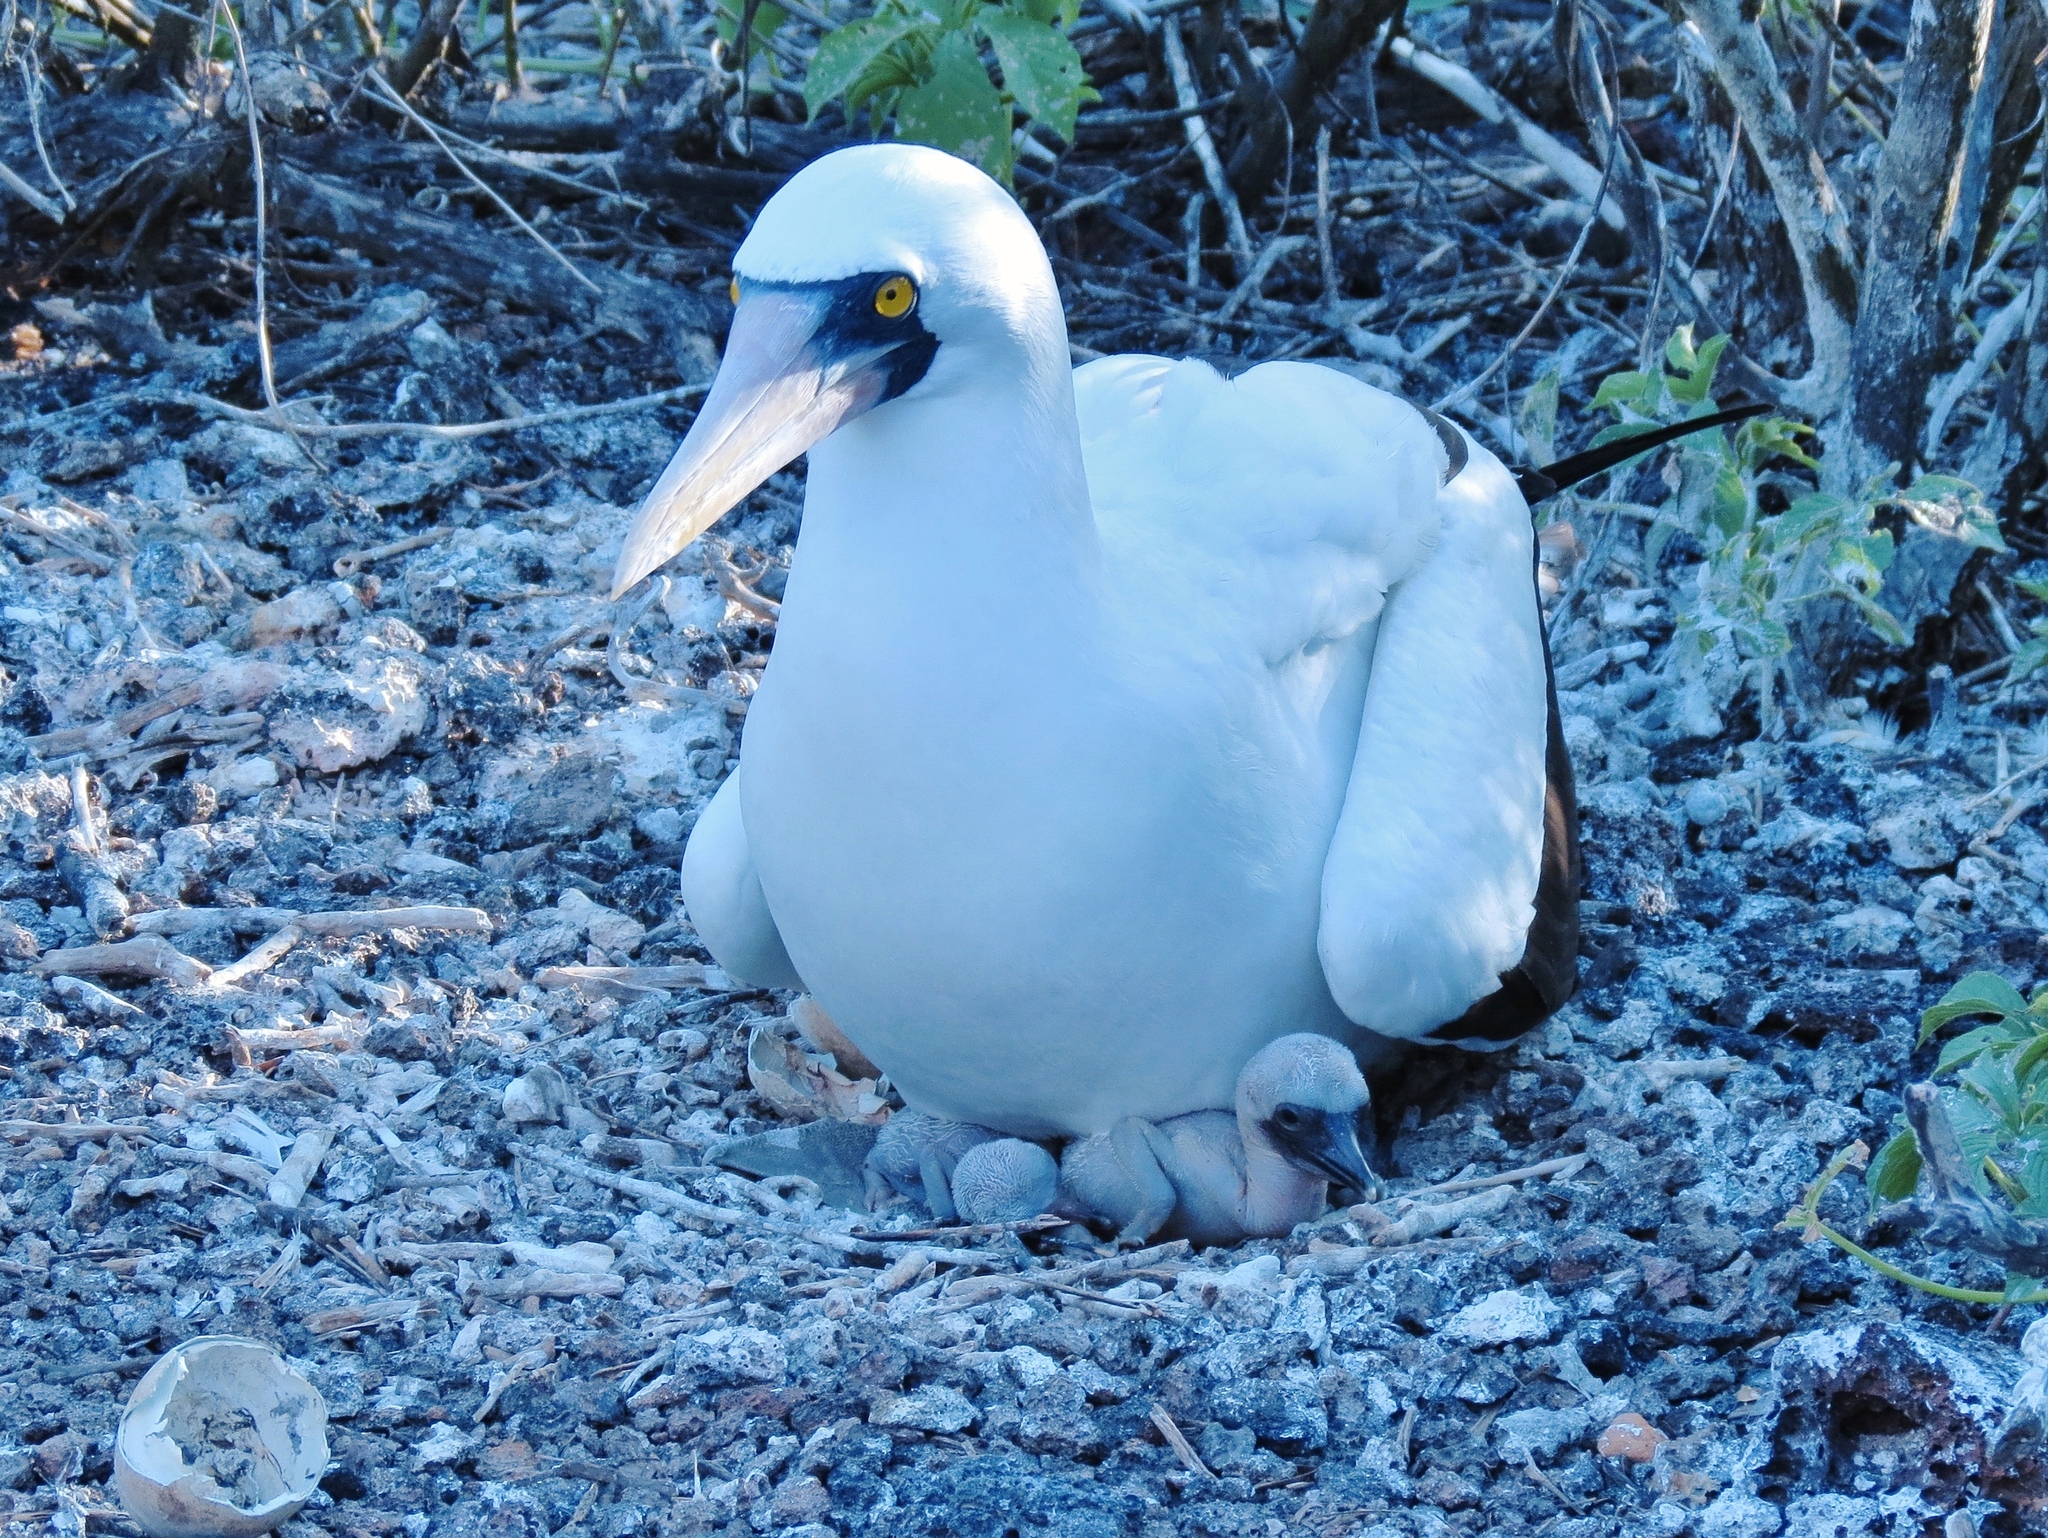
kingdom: Animalia
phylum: Chordata
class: Aves
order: Suliformes
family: Sulidae
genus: Sula
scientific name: Sula granti
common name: Nazca booby
